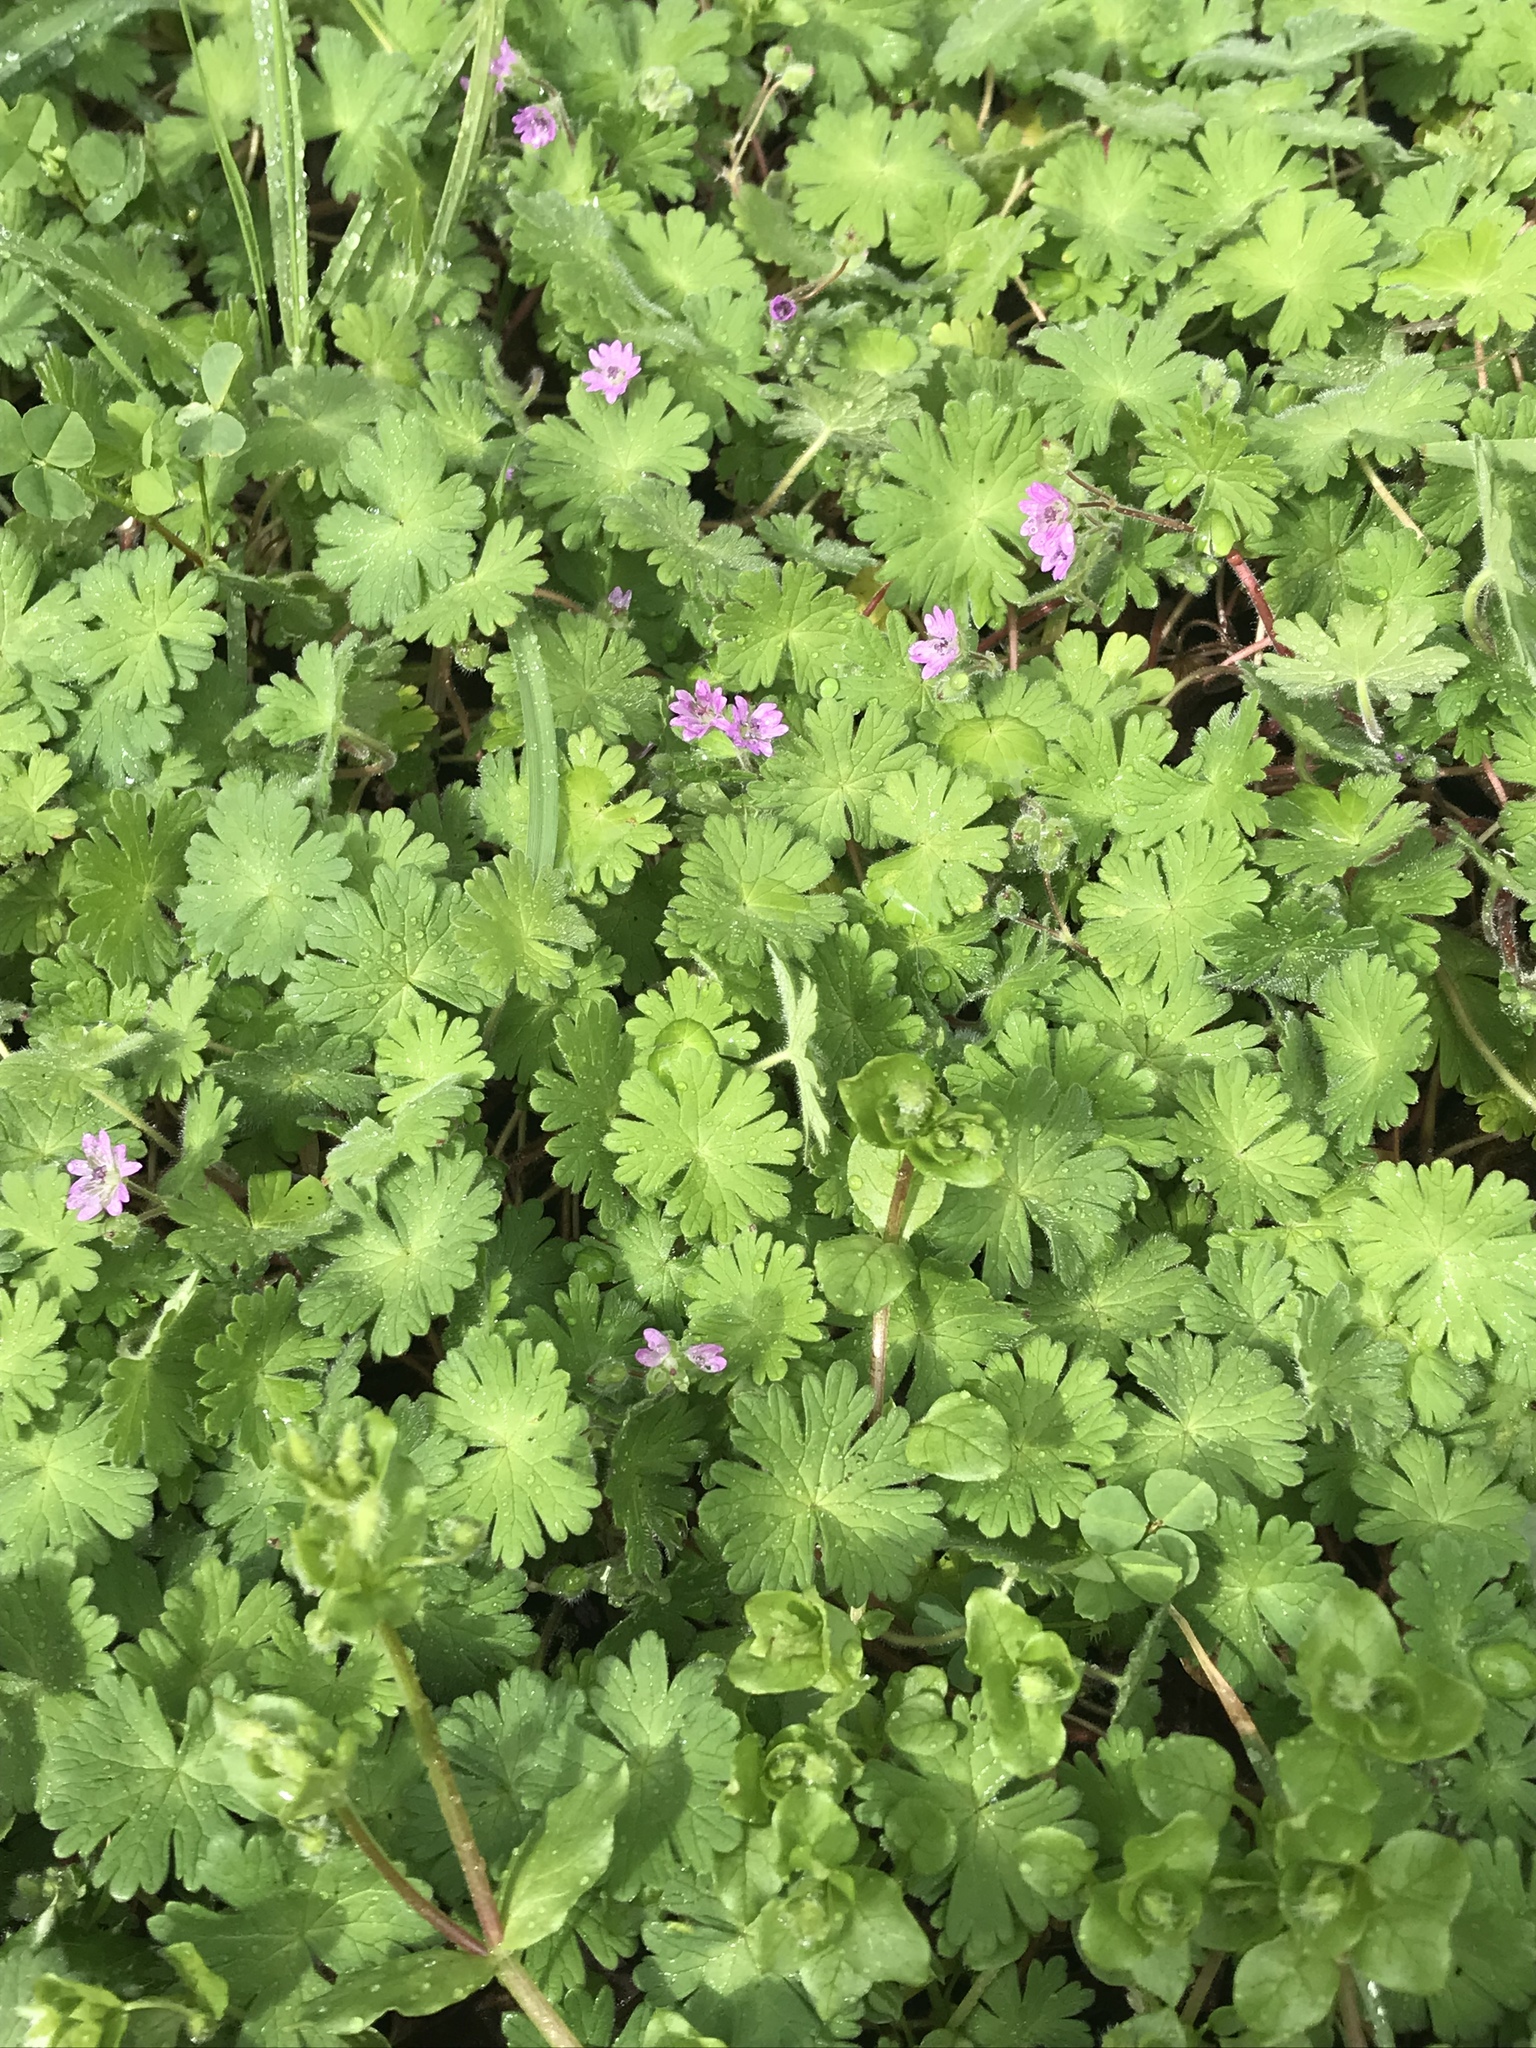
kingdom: Plantae
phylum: Tracheophyta
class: Magnoliopsida
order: Geraniales
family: Geraniaceae
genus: Geranium
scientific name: Geranium molle
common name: Dove's-foot crane's-bill
